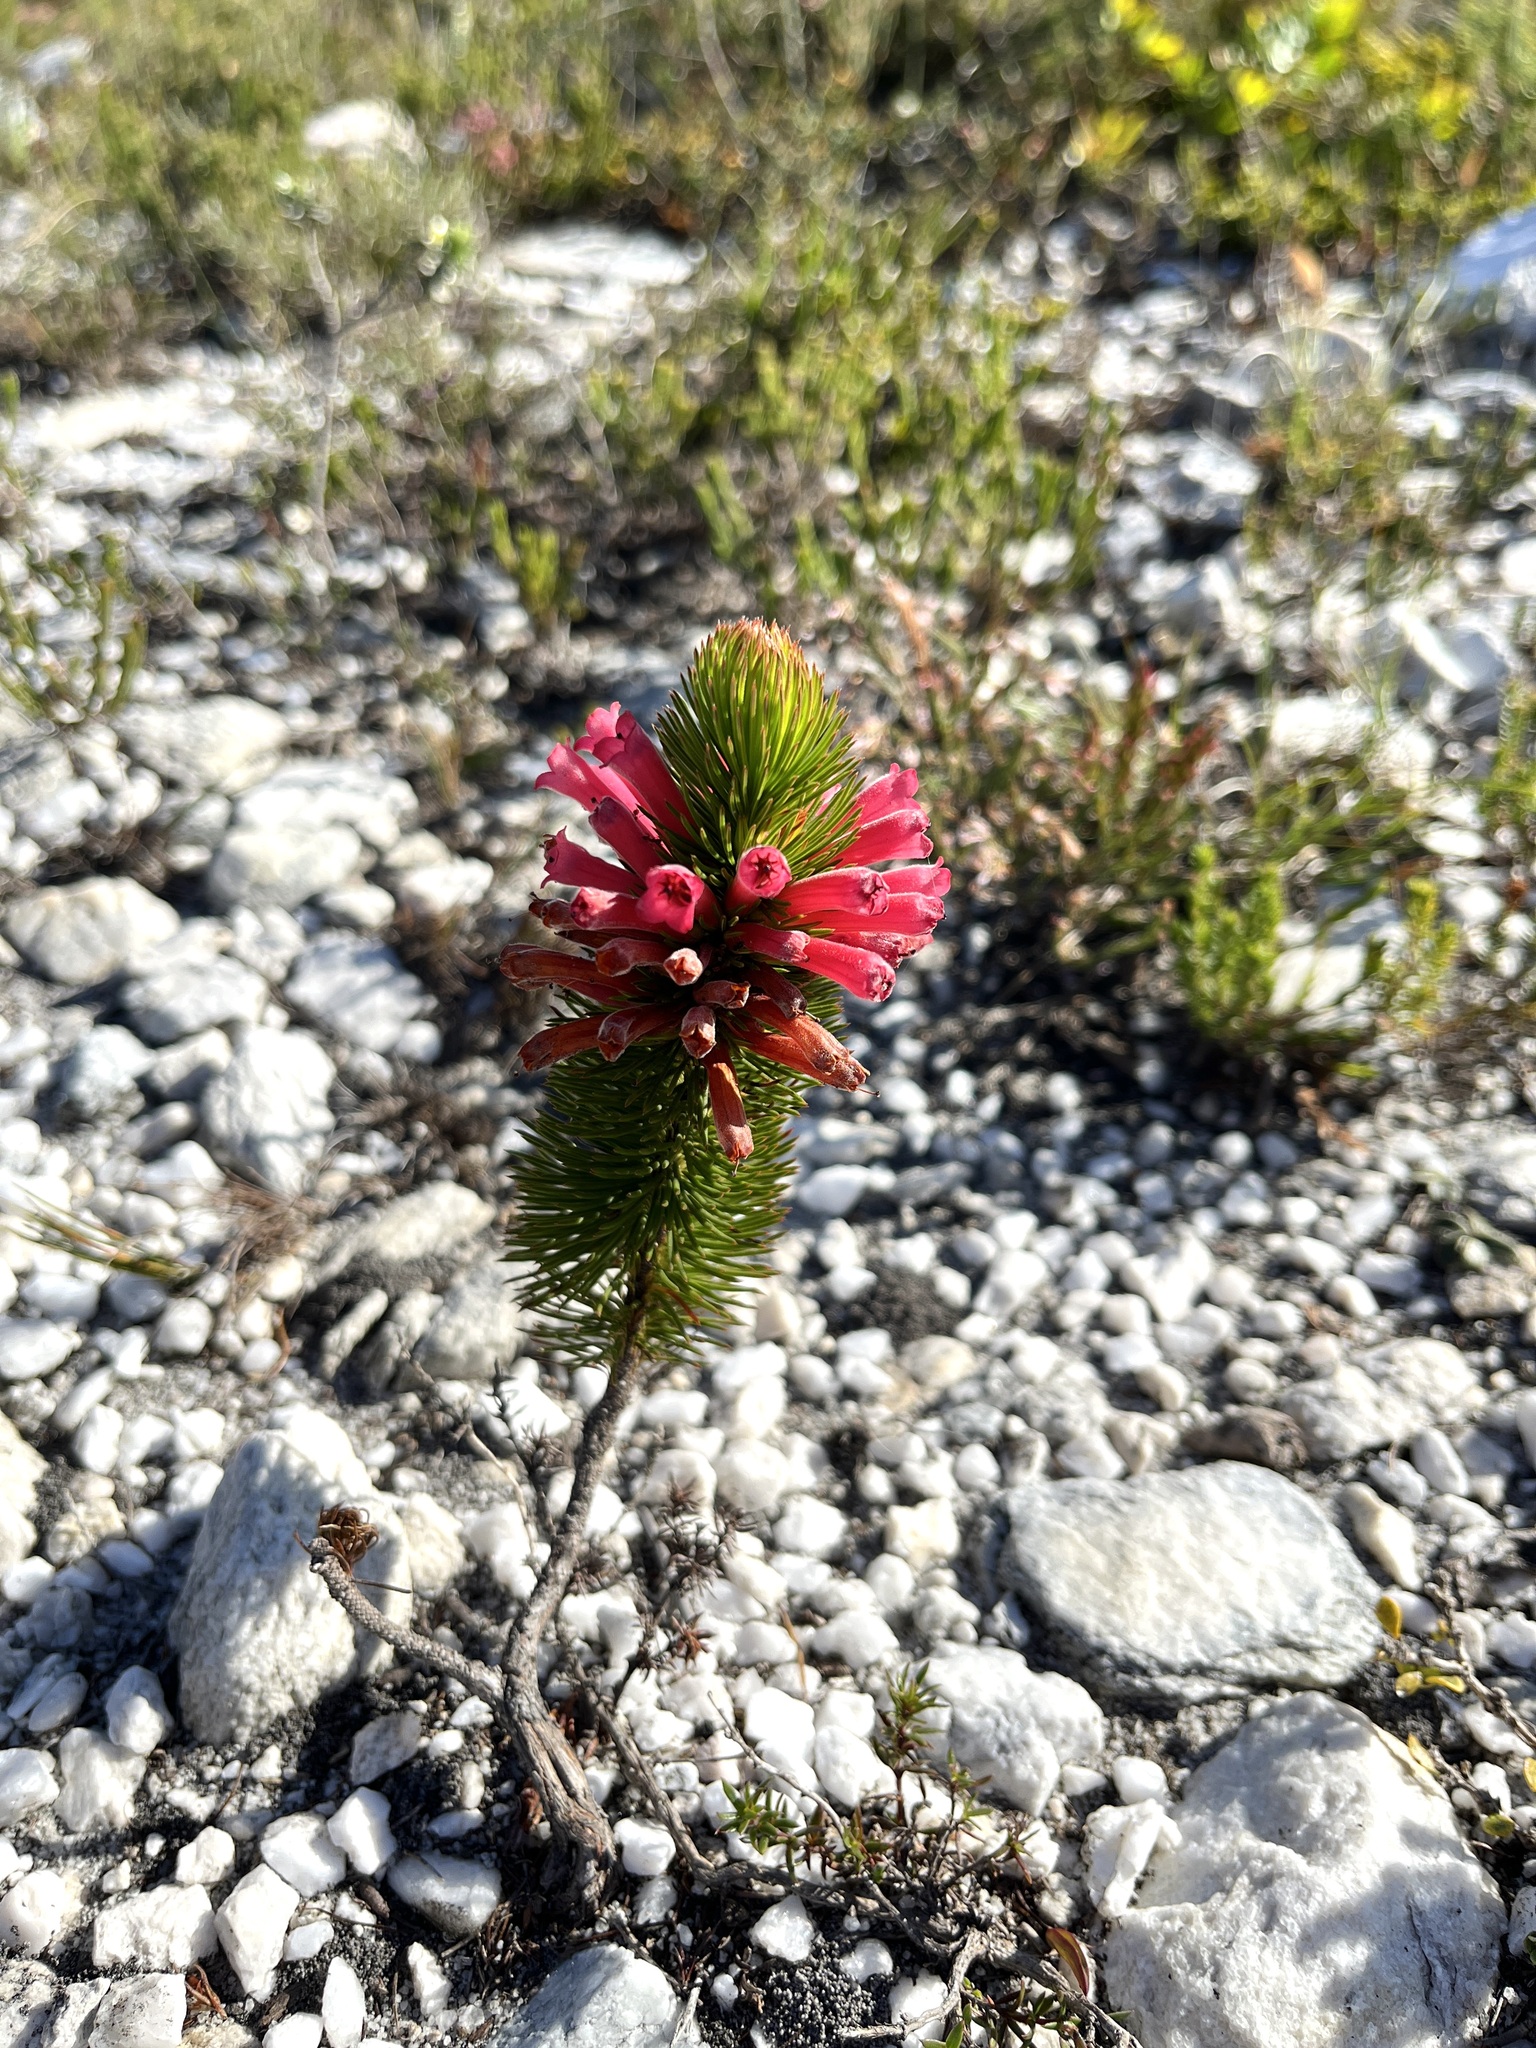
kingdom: Plantae
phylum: Tracheophyta
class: Magnoliopsida
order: Ericales
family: Ericaceae
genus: Erica
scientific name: Erica vestita
